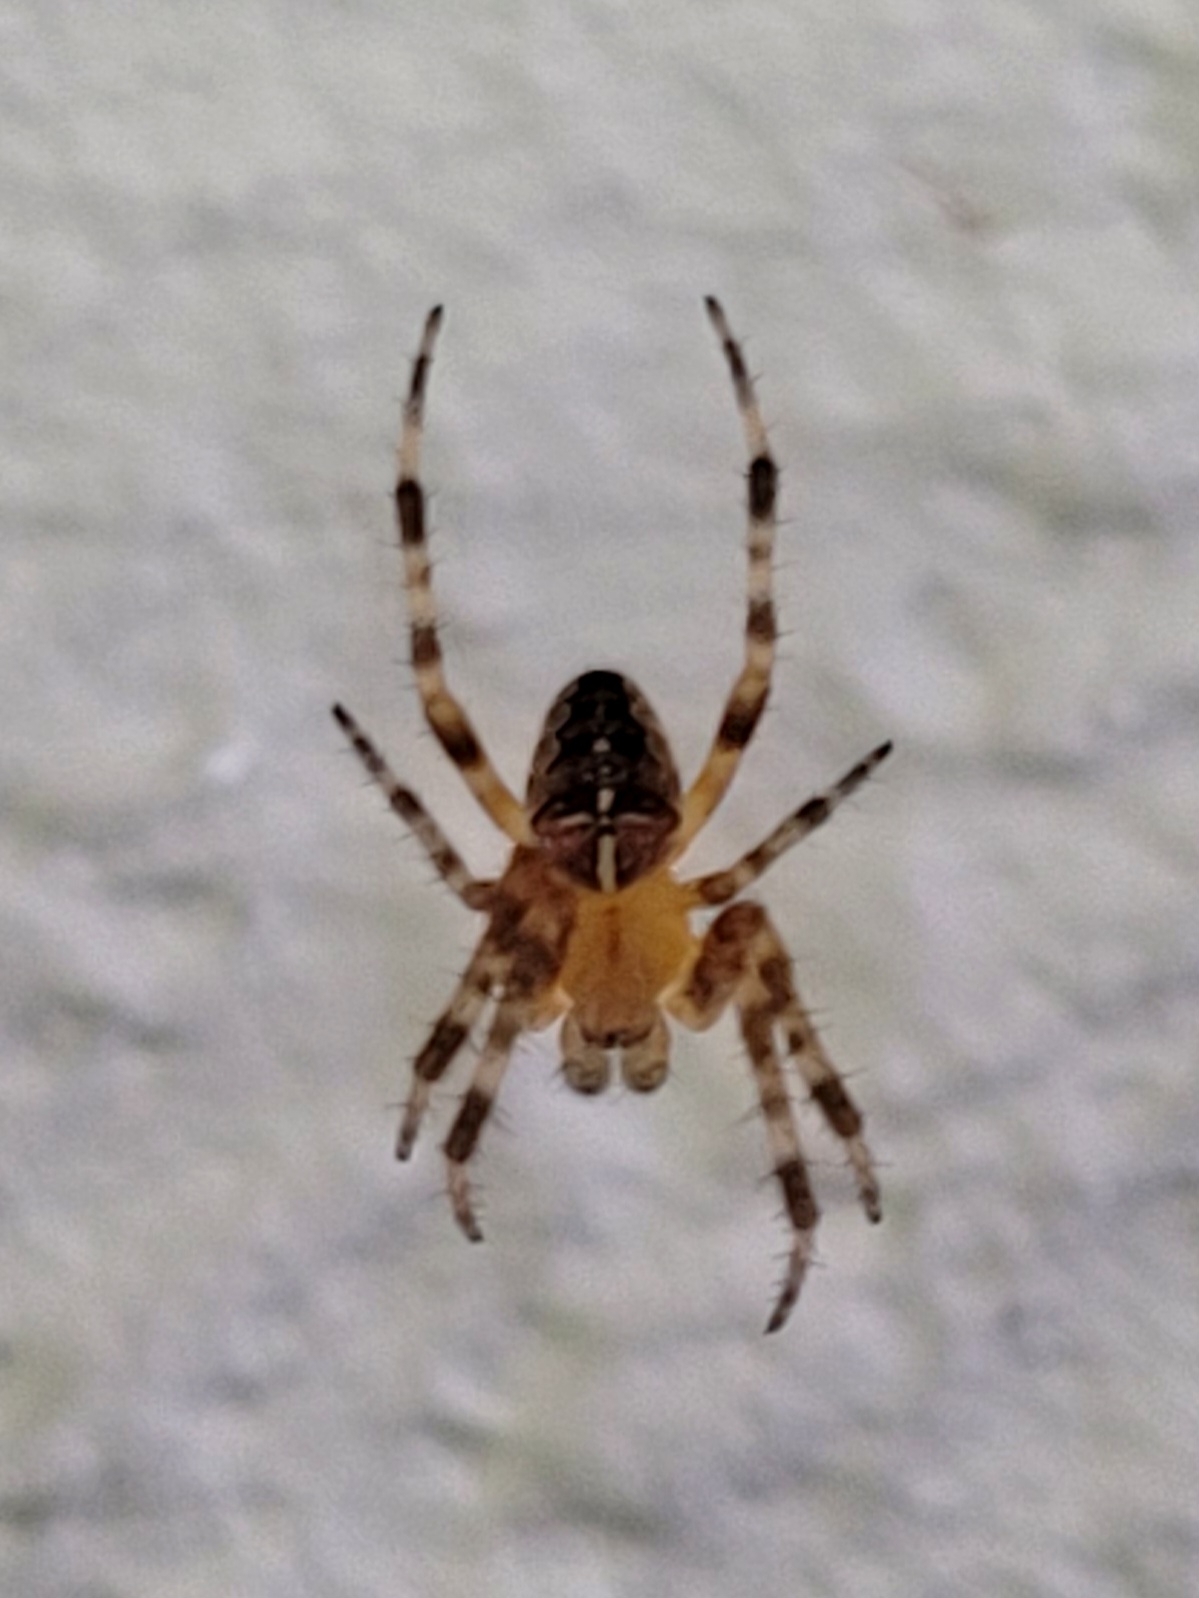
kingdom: Animalia
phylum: Arthropoda
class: Arachnida
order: Araneae
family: Araneidae
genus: Araneus
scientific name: Araneus diadematus
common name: Cross orbweaver
